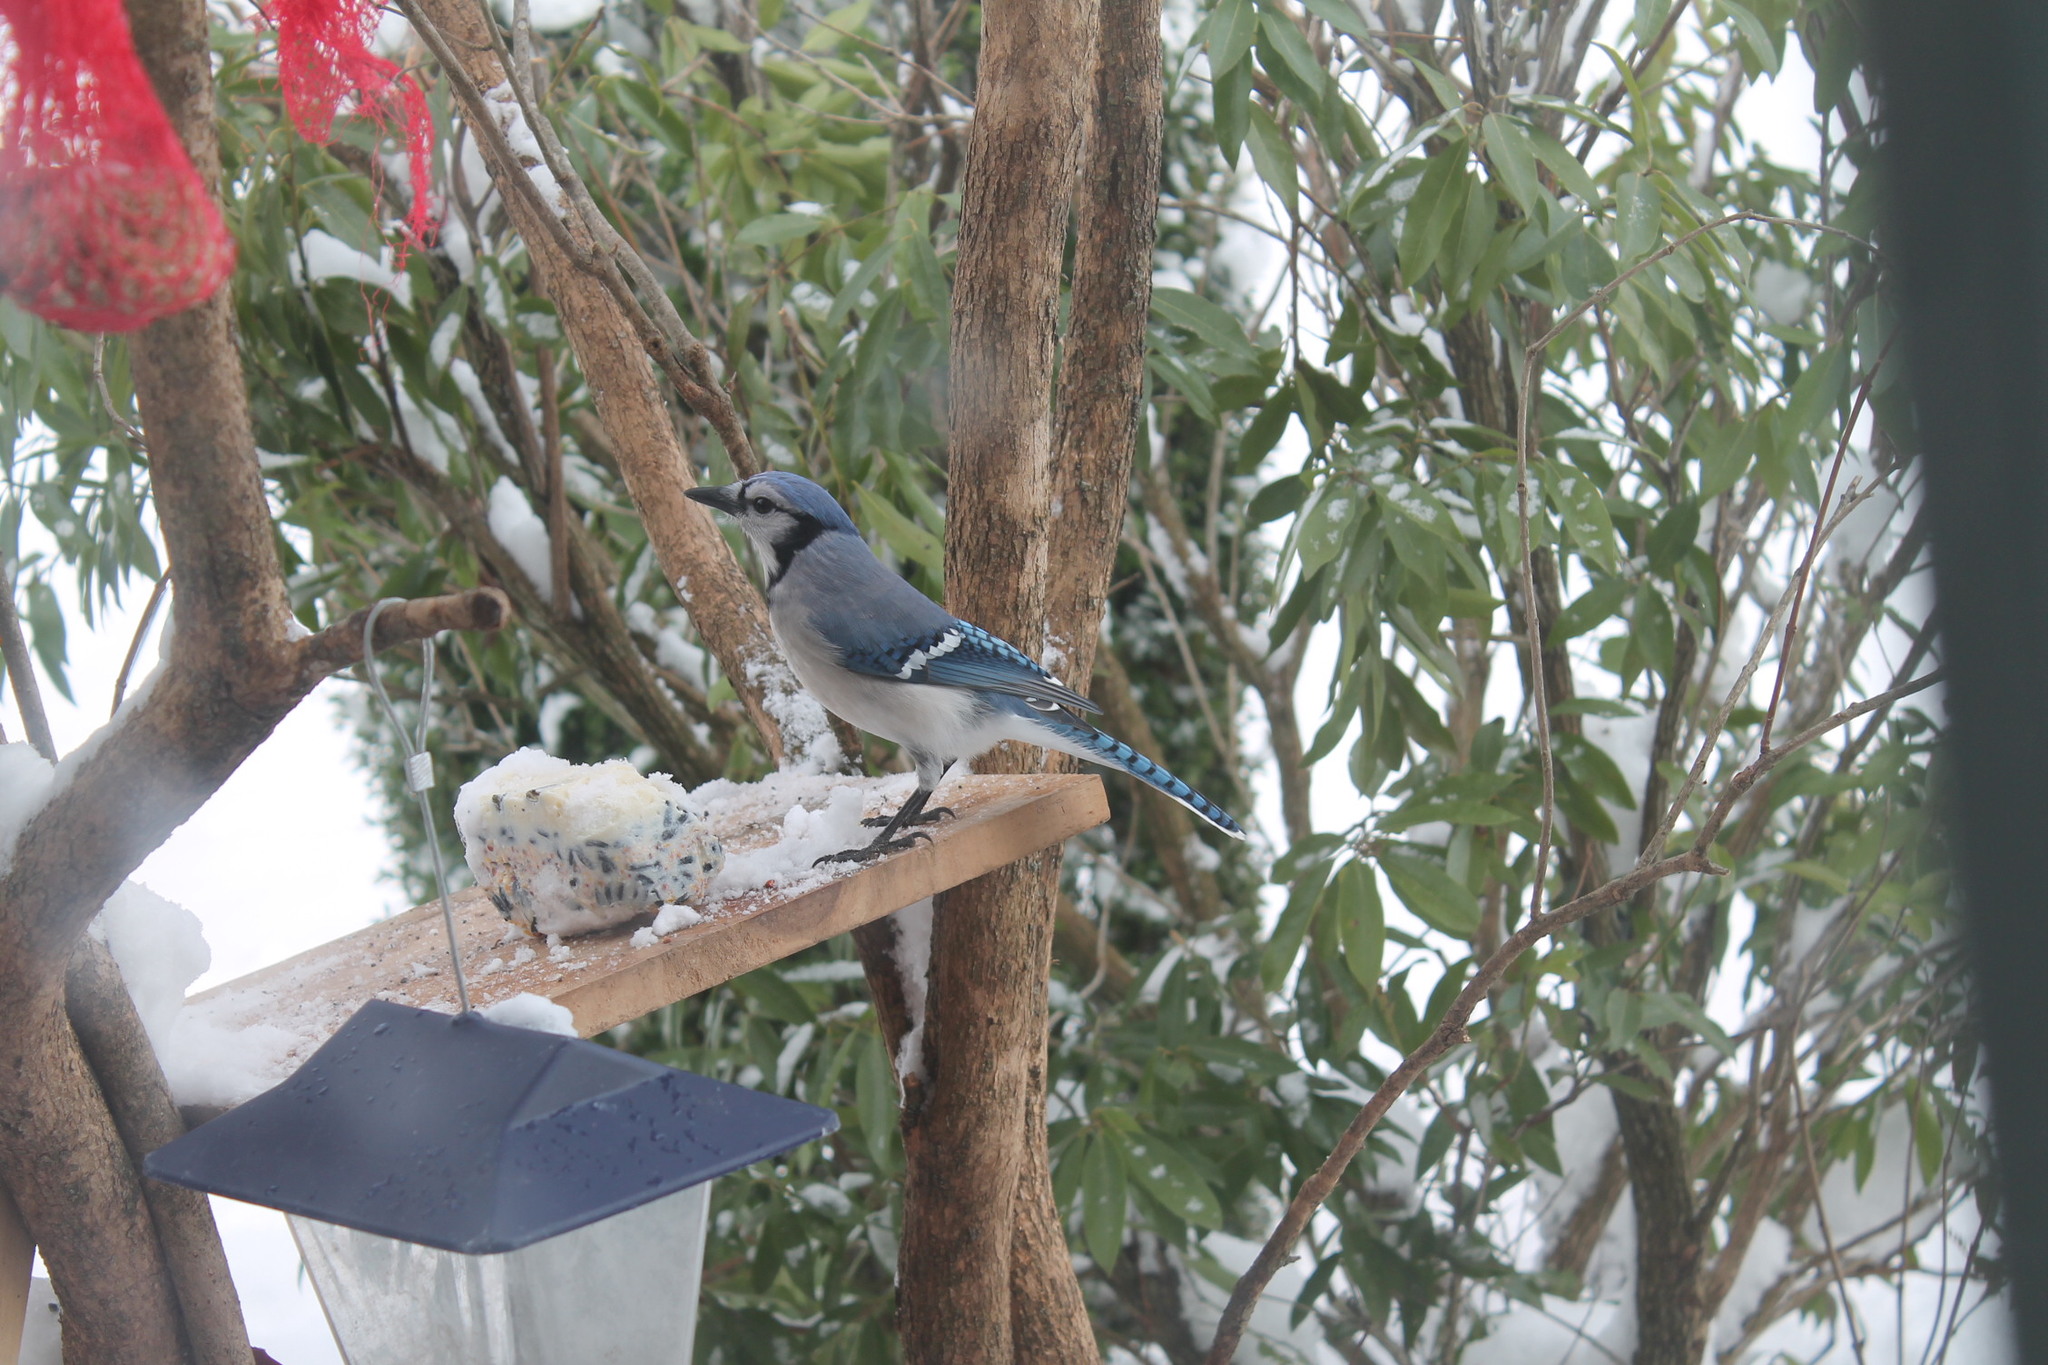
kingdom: Animalia
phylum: Chordata
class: Aves
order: Passeriformes
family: Corvidae
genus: Cyanocitta
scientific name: Cyanocitta cristata
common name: Blue jay
